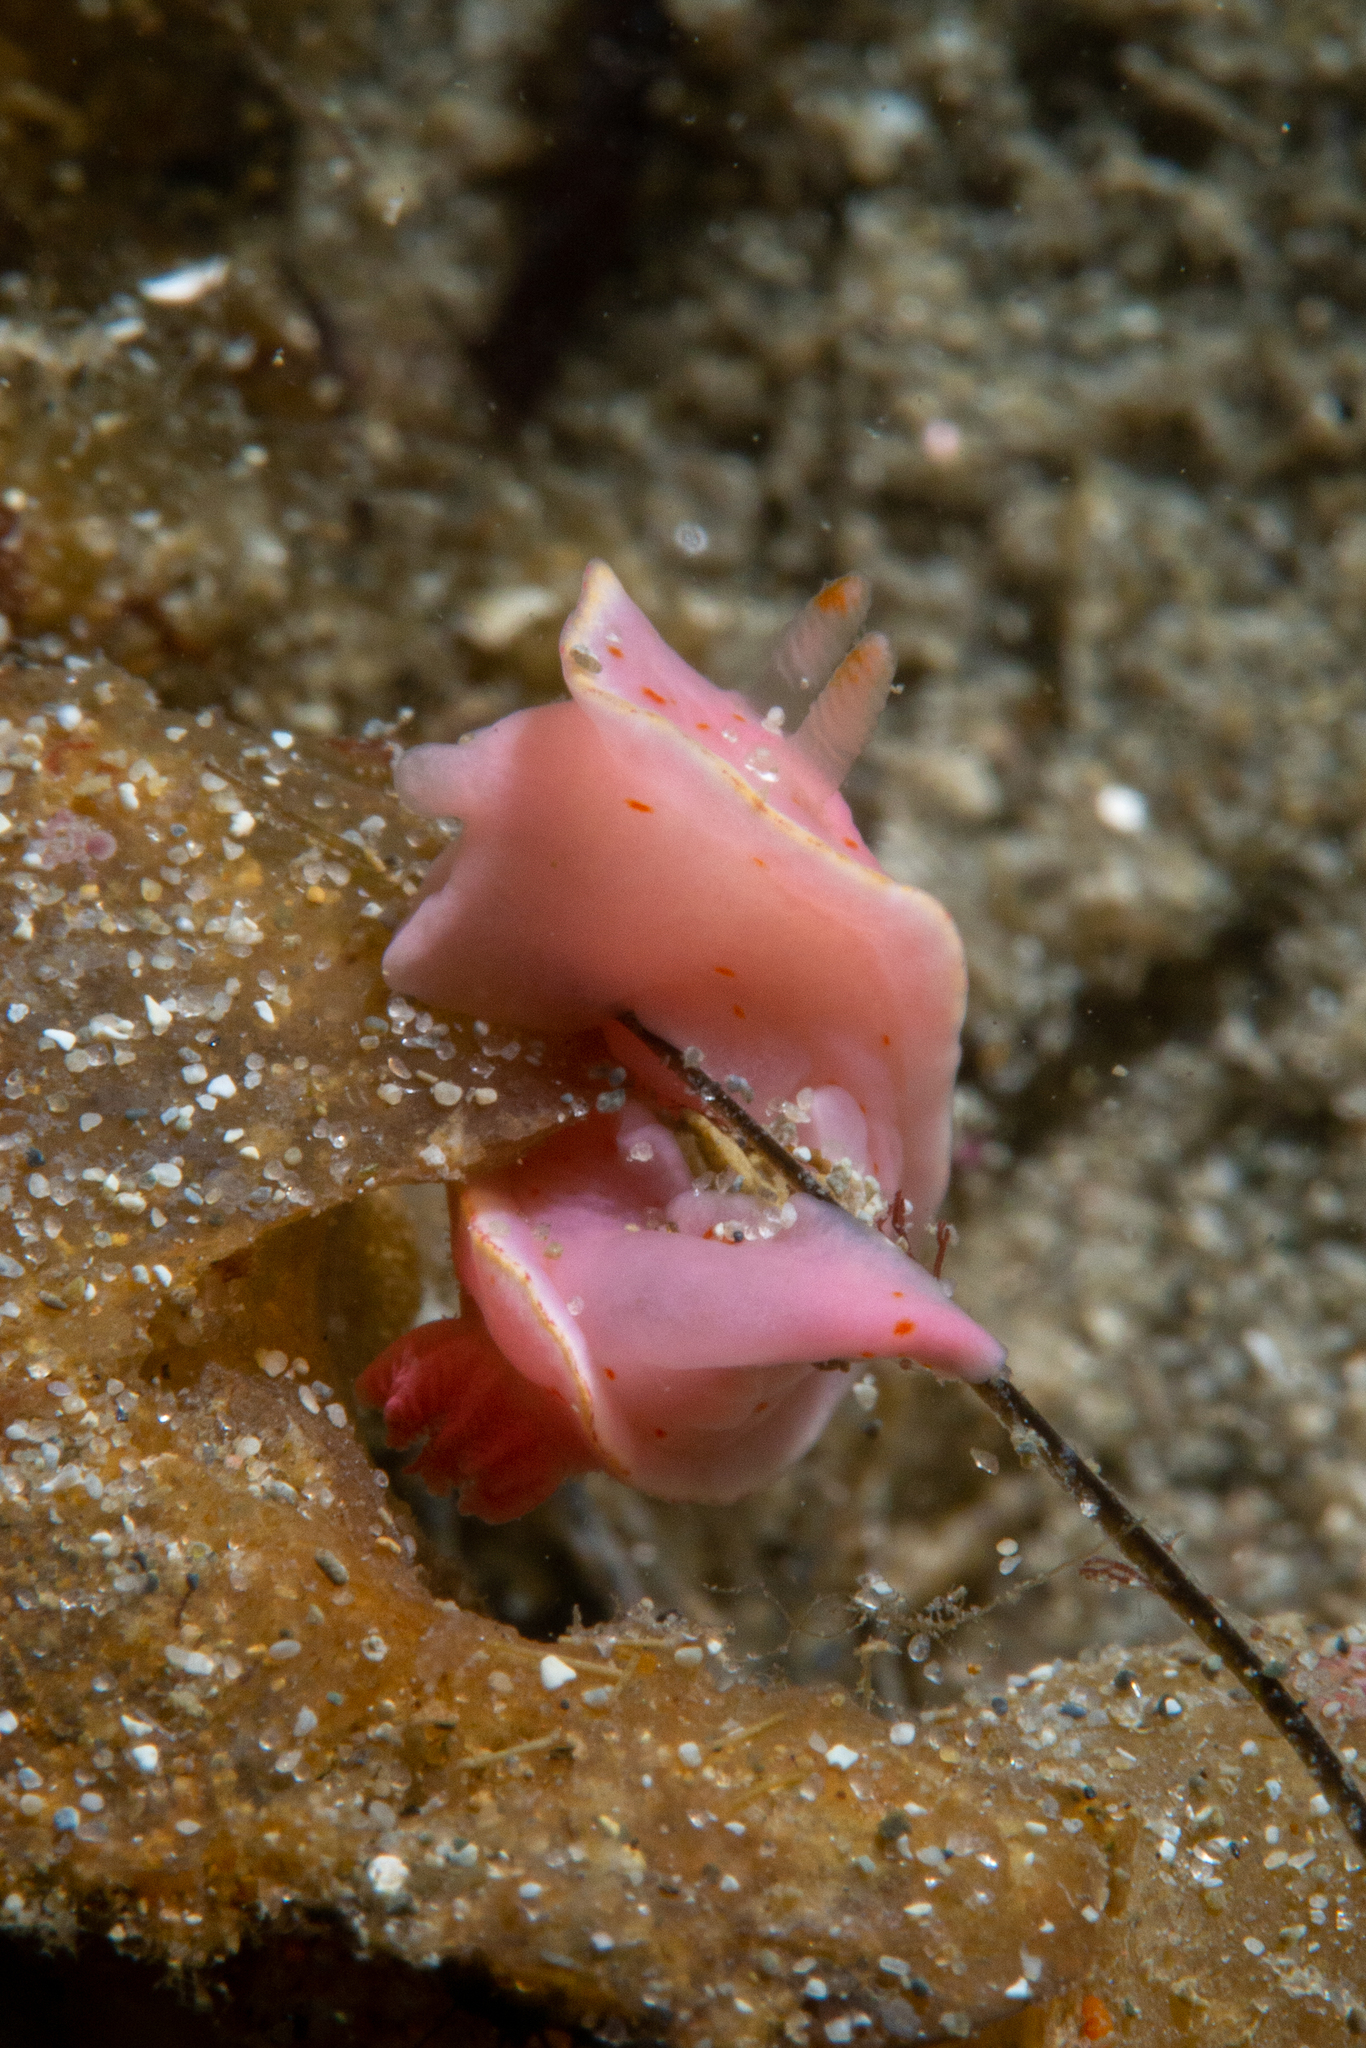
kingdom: Animalia
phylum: Mollusca
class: Gastropoda
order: Nudibranchia
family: Chromodorididae
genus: Verconia
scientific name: Verconia haliclona
